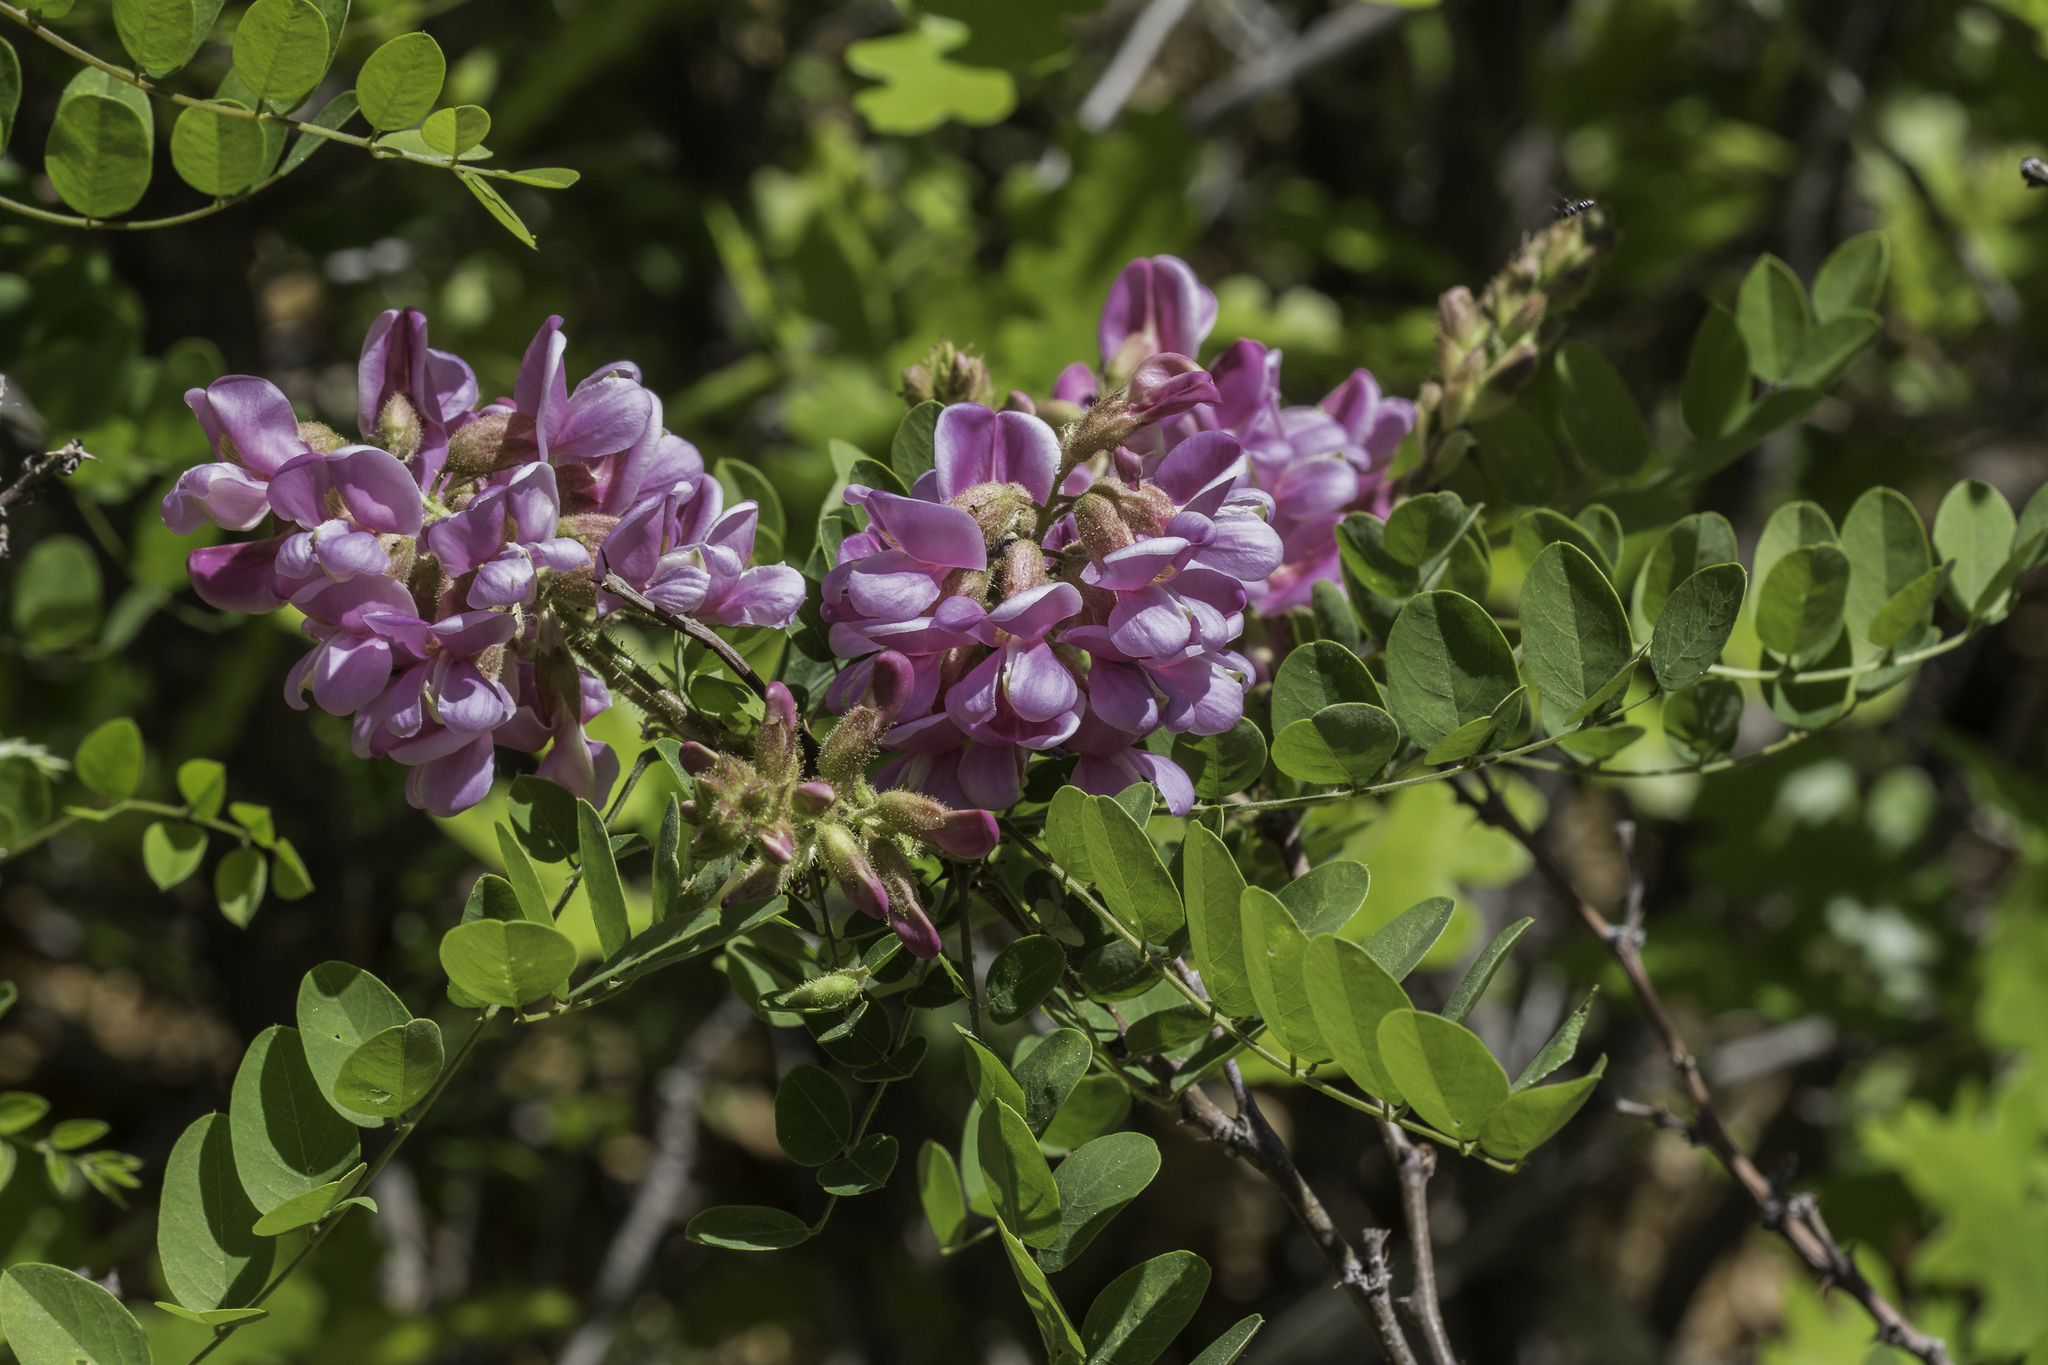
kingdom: Plantae
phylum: Tracheophyta
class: Magnoliopsida
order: Fabales
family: Fabaceae
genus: Robinia
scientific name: Robinia neomexicana
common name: New mexico locust
